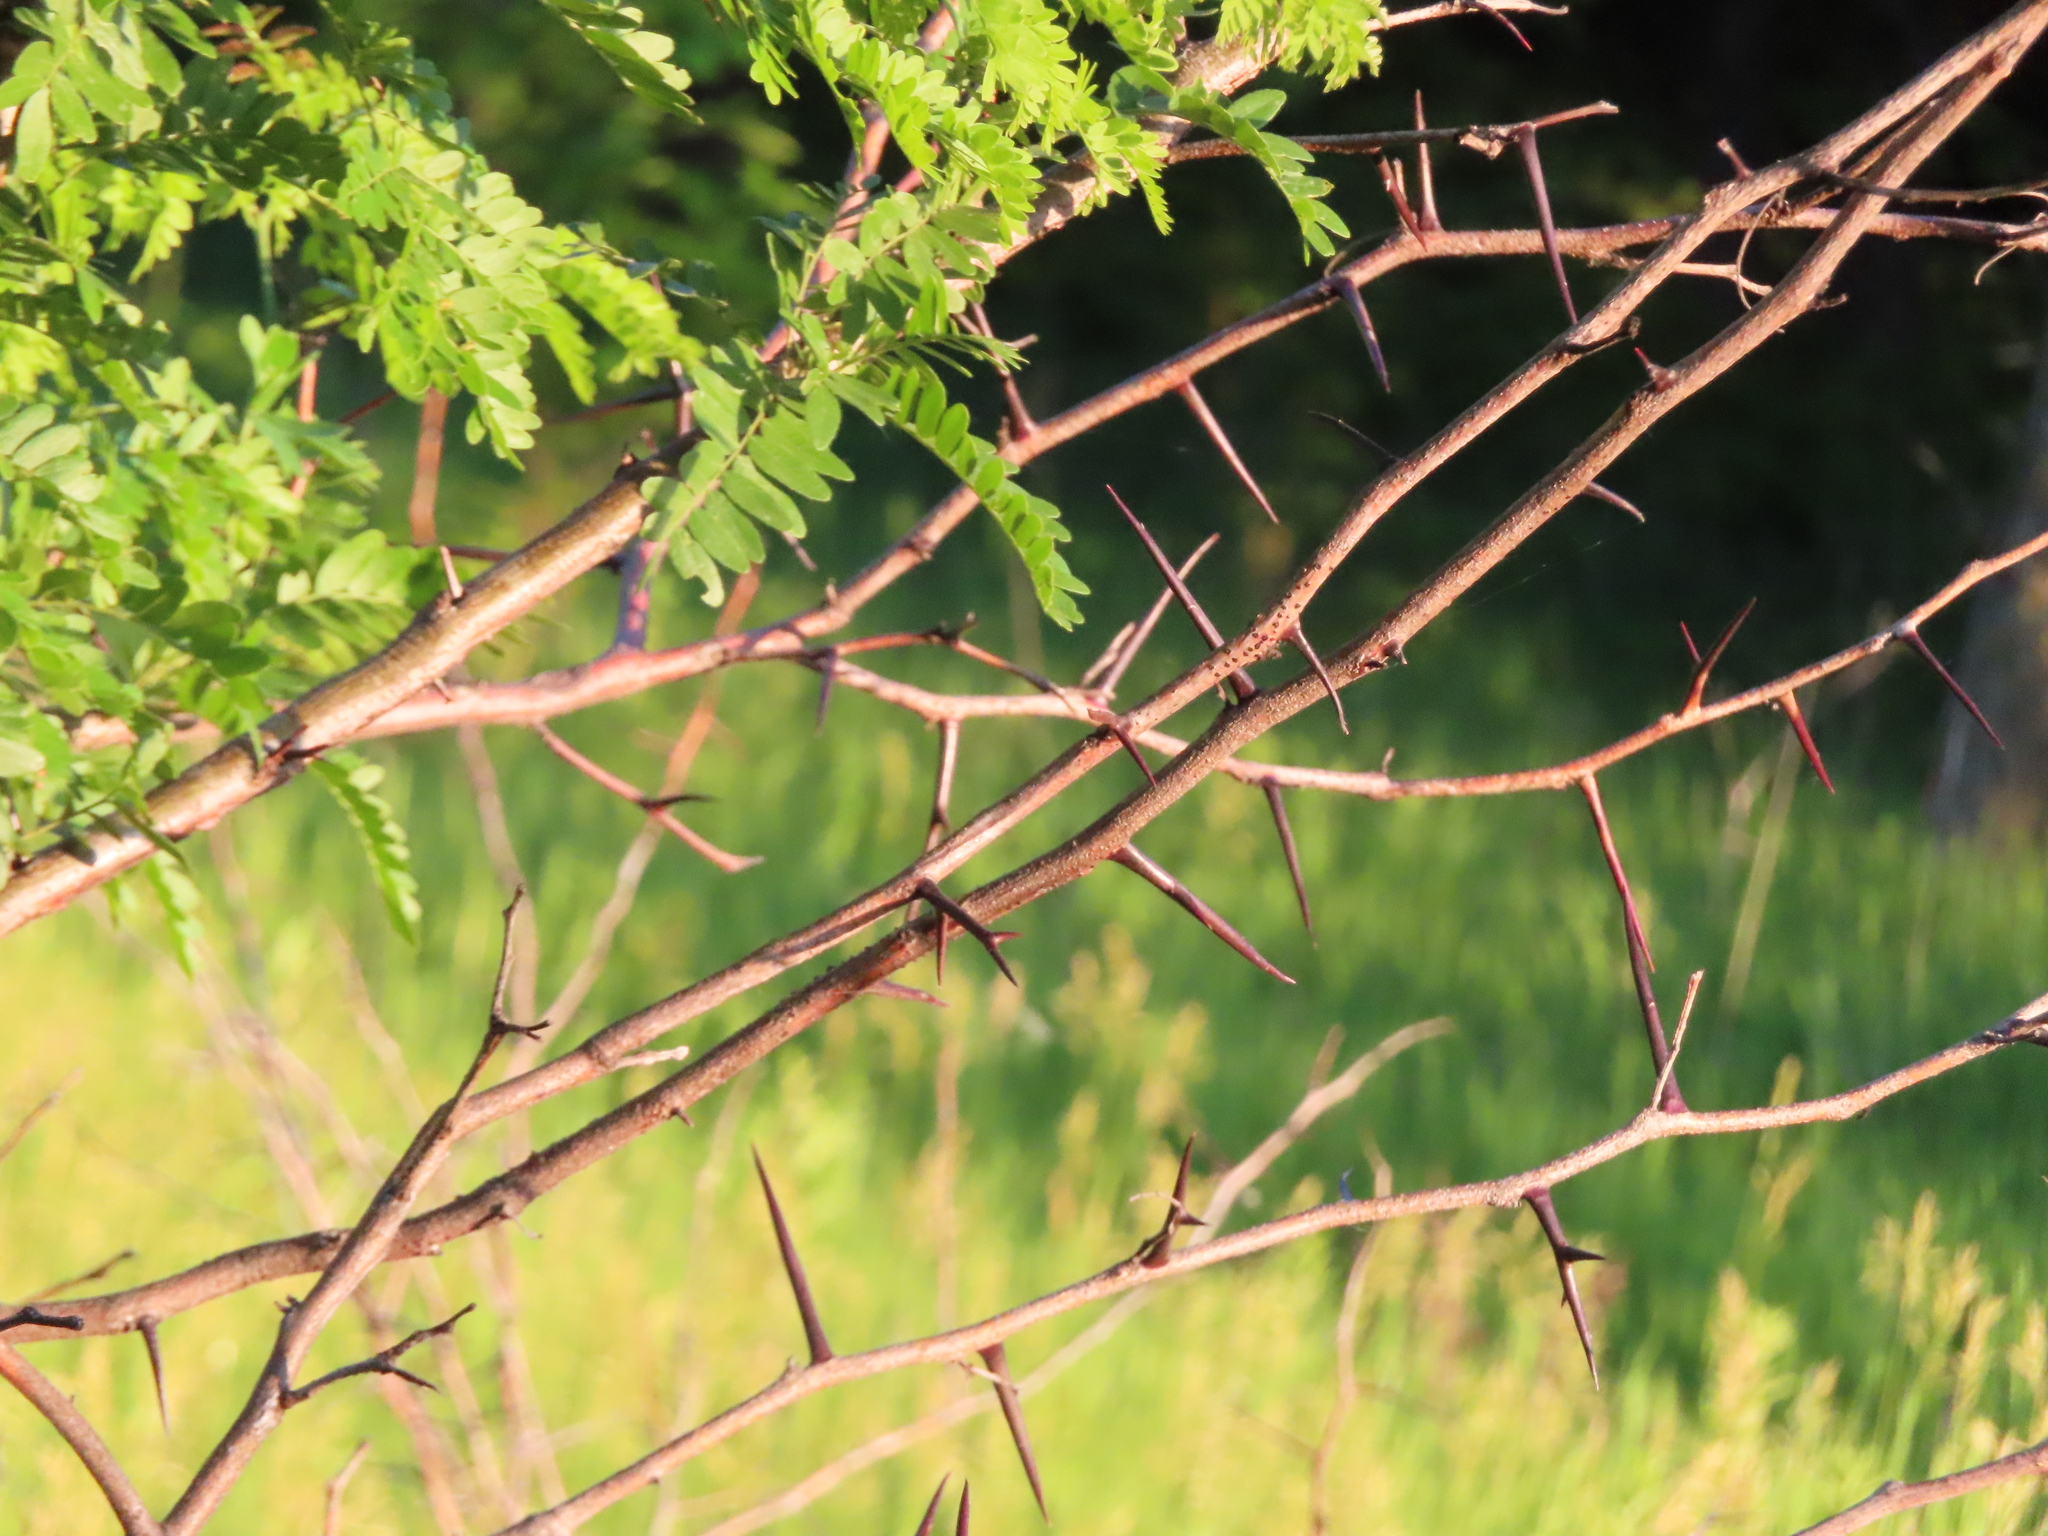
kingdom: Plantae
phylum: Tracheophyta
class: Magnoliopsida
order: Fabales
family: Fabaceae
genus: Gleditsia
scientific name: Gleditsia triacanthos
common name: Common honeylocust
